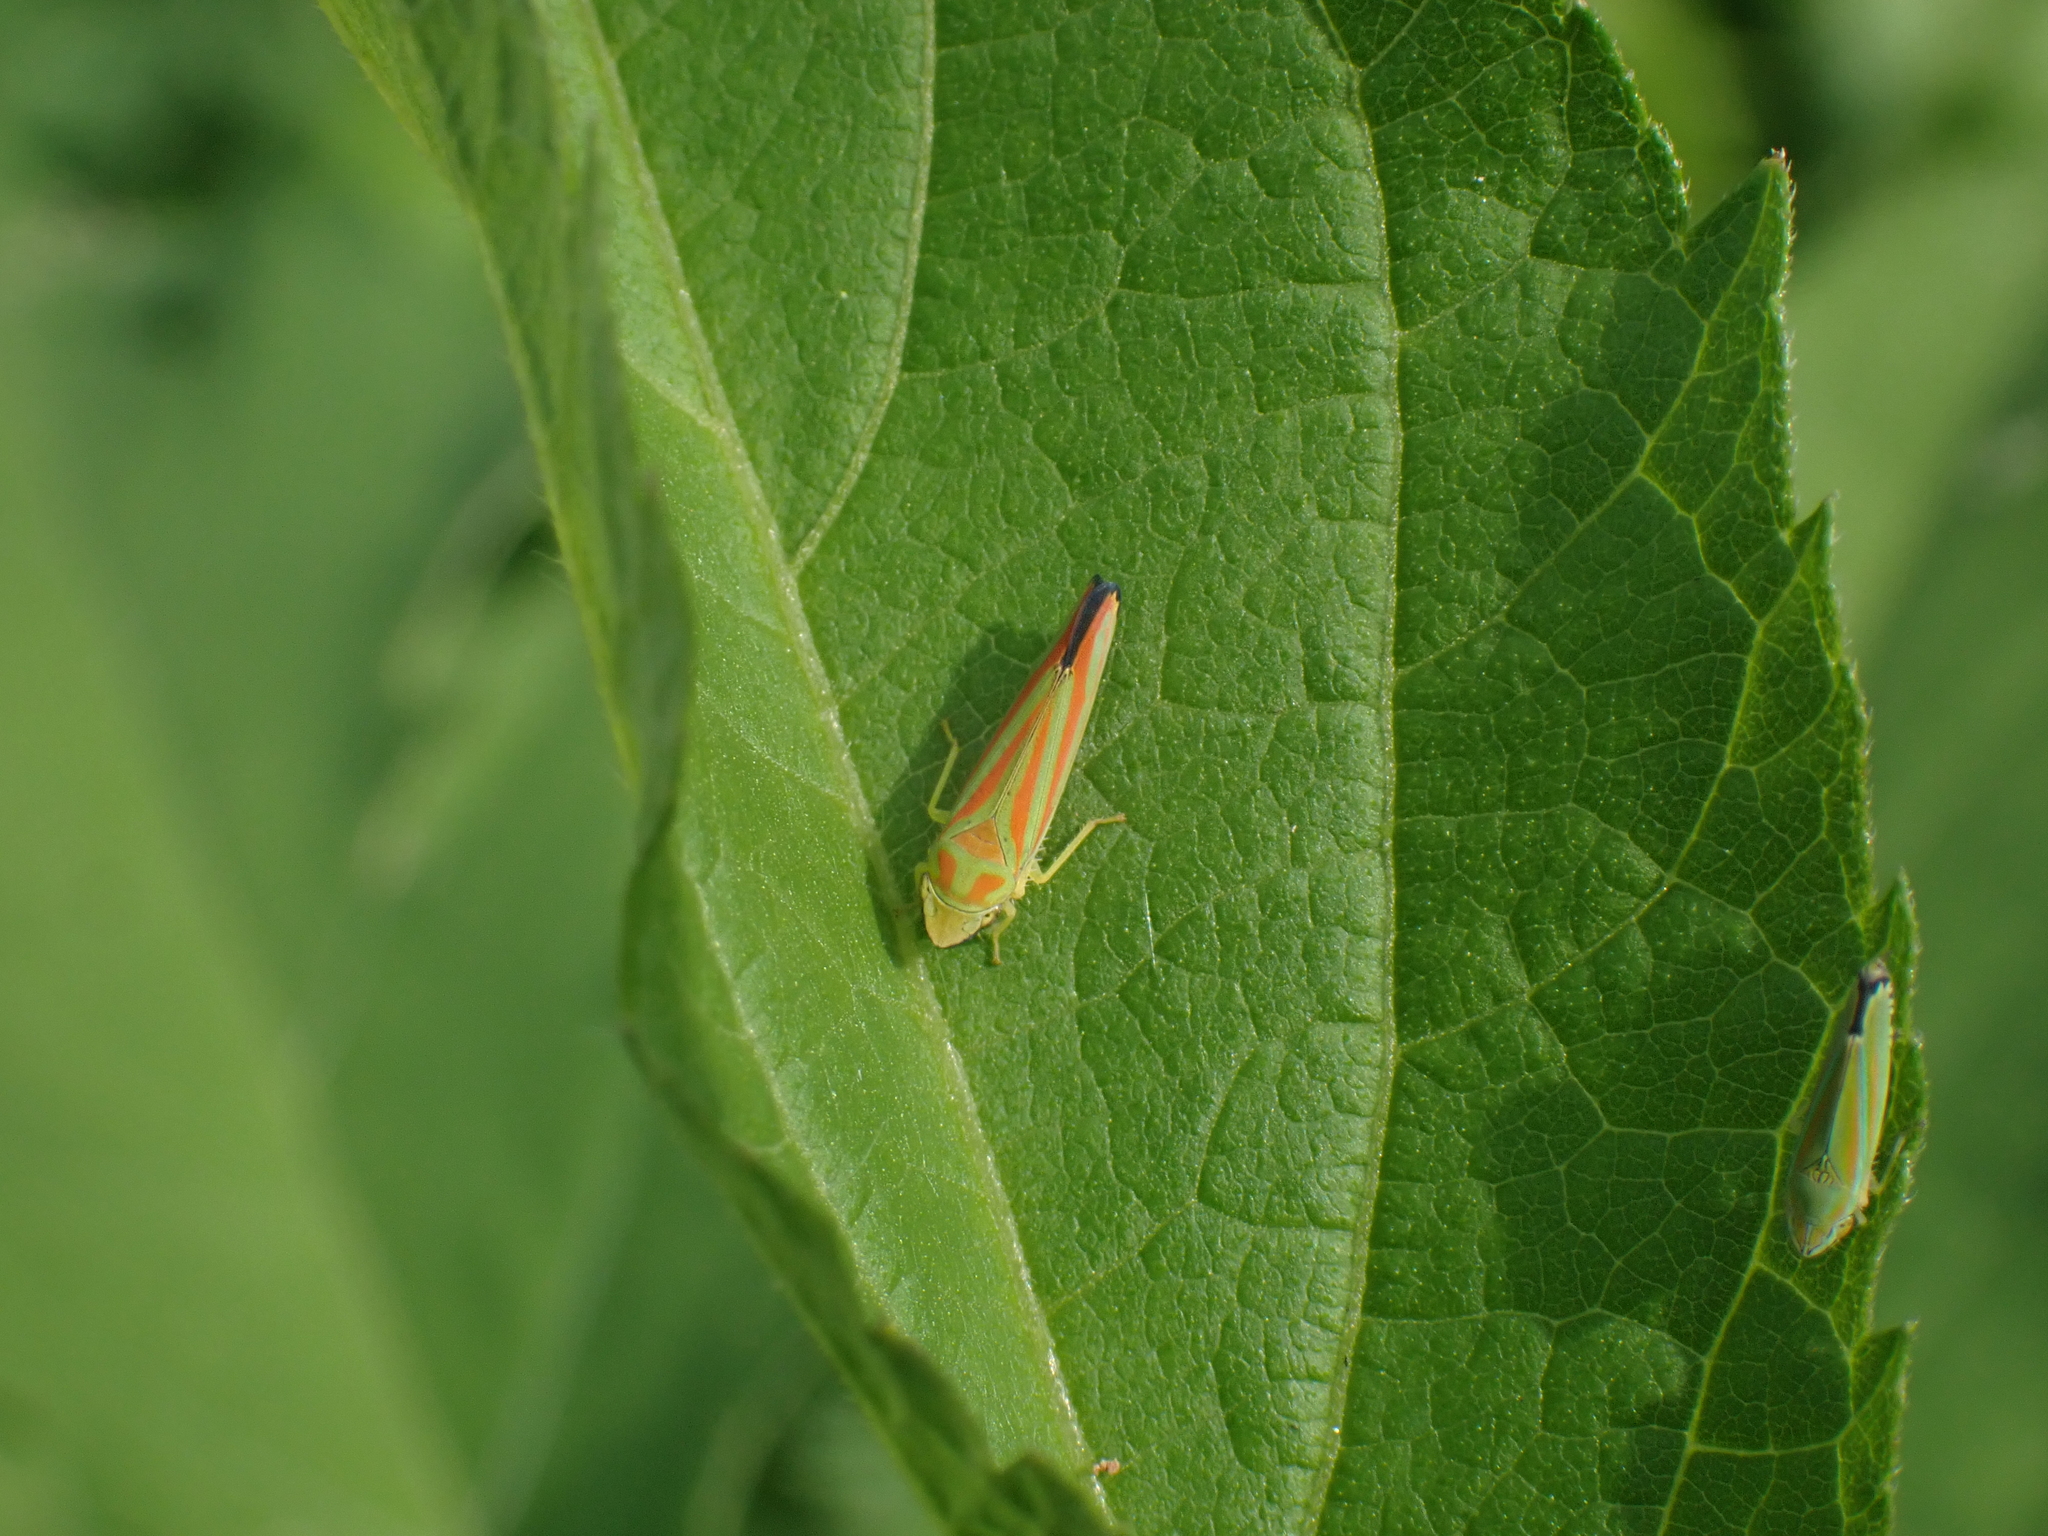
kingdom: Animalia
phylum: Arthropoda
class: Insecta
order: Hemiptera
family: Cicadellidae
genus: Graphocephala
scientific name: Graphocephala versuta
